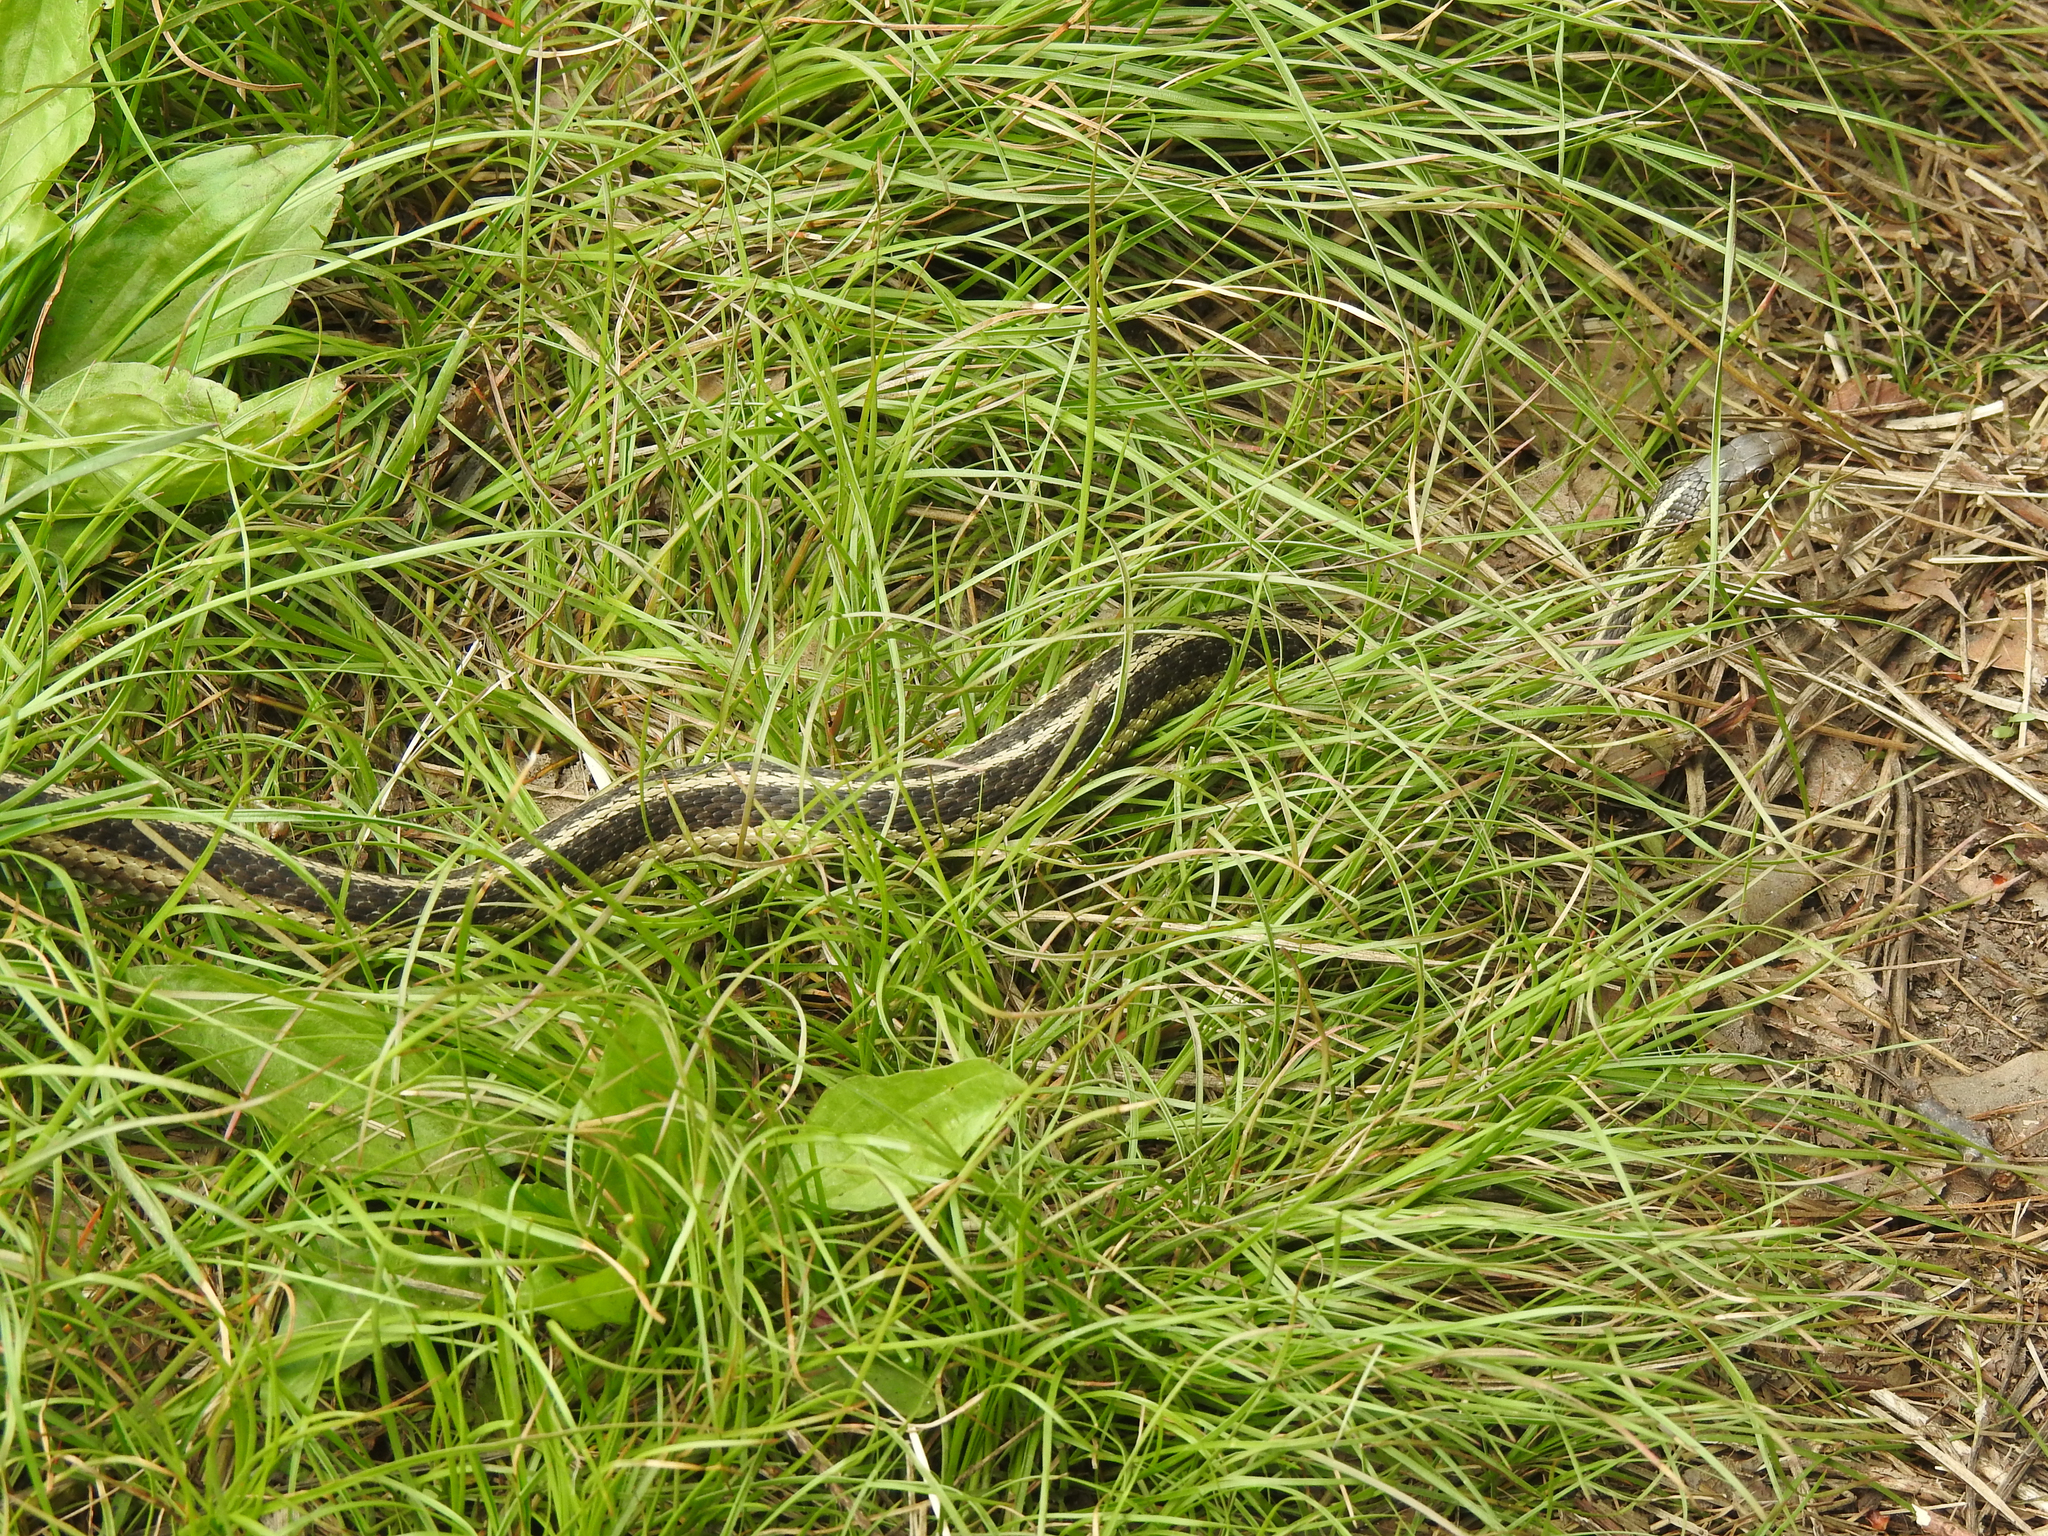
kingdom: Animalia
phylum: Chordata
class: Squamata
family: Colubridae
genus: Thamnophis
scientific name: Thamnophis sirtalis
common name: Common garter snake
